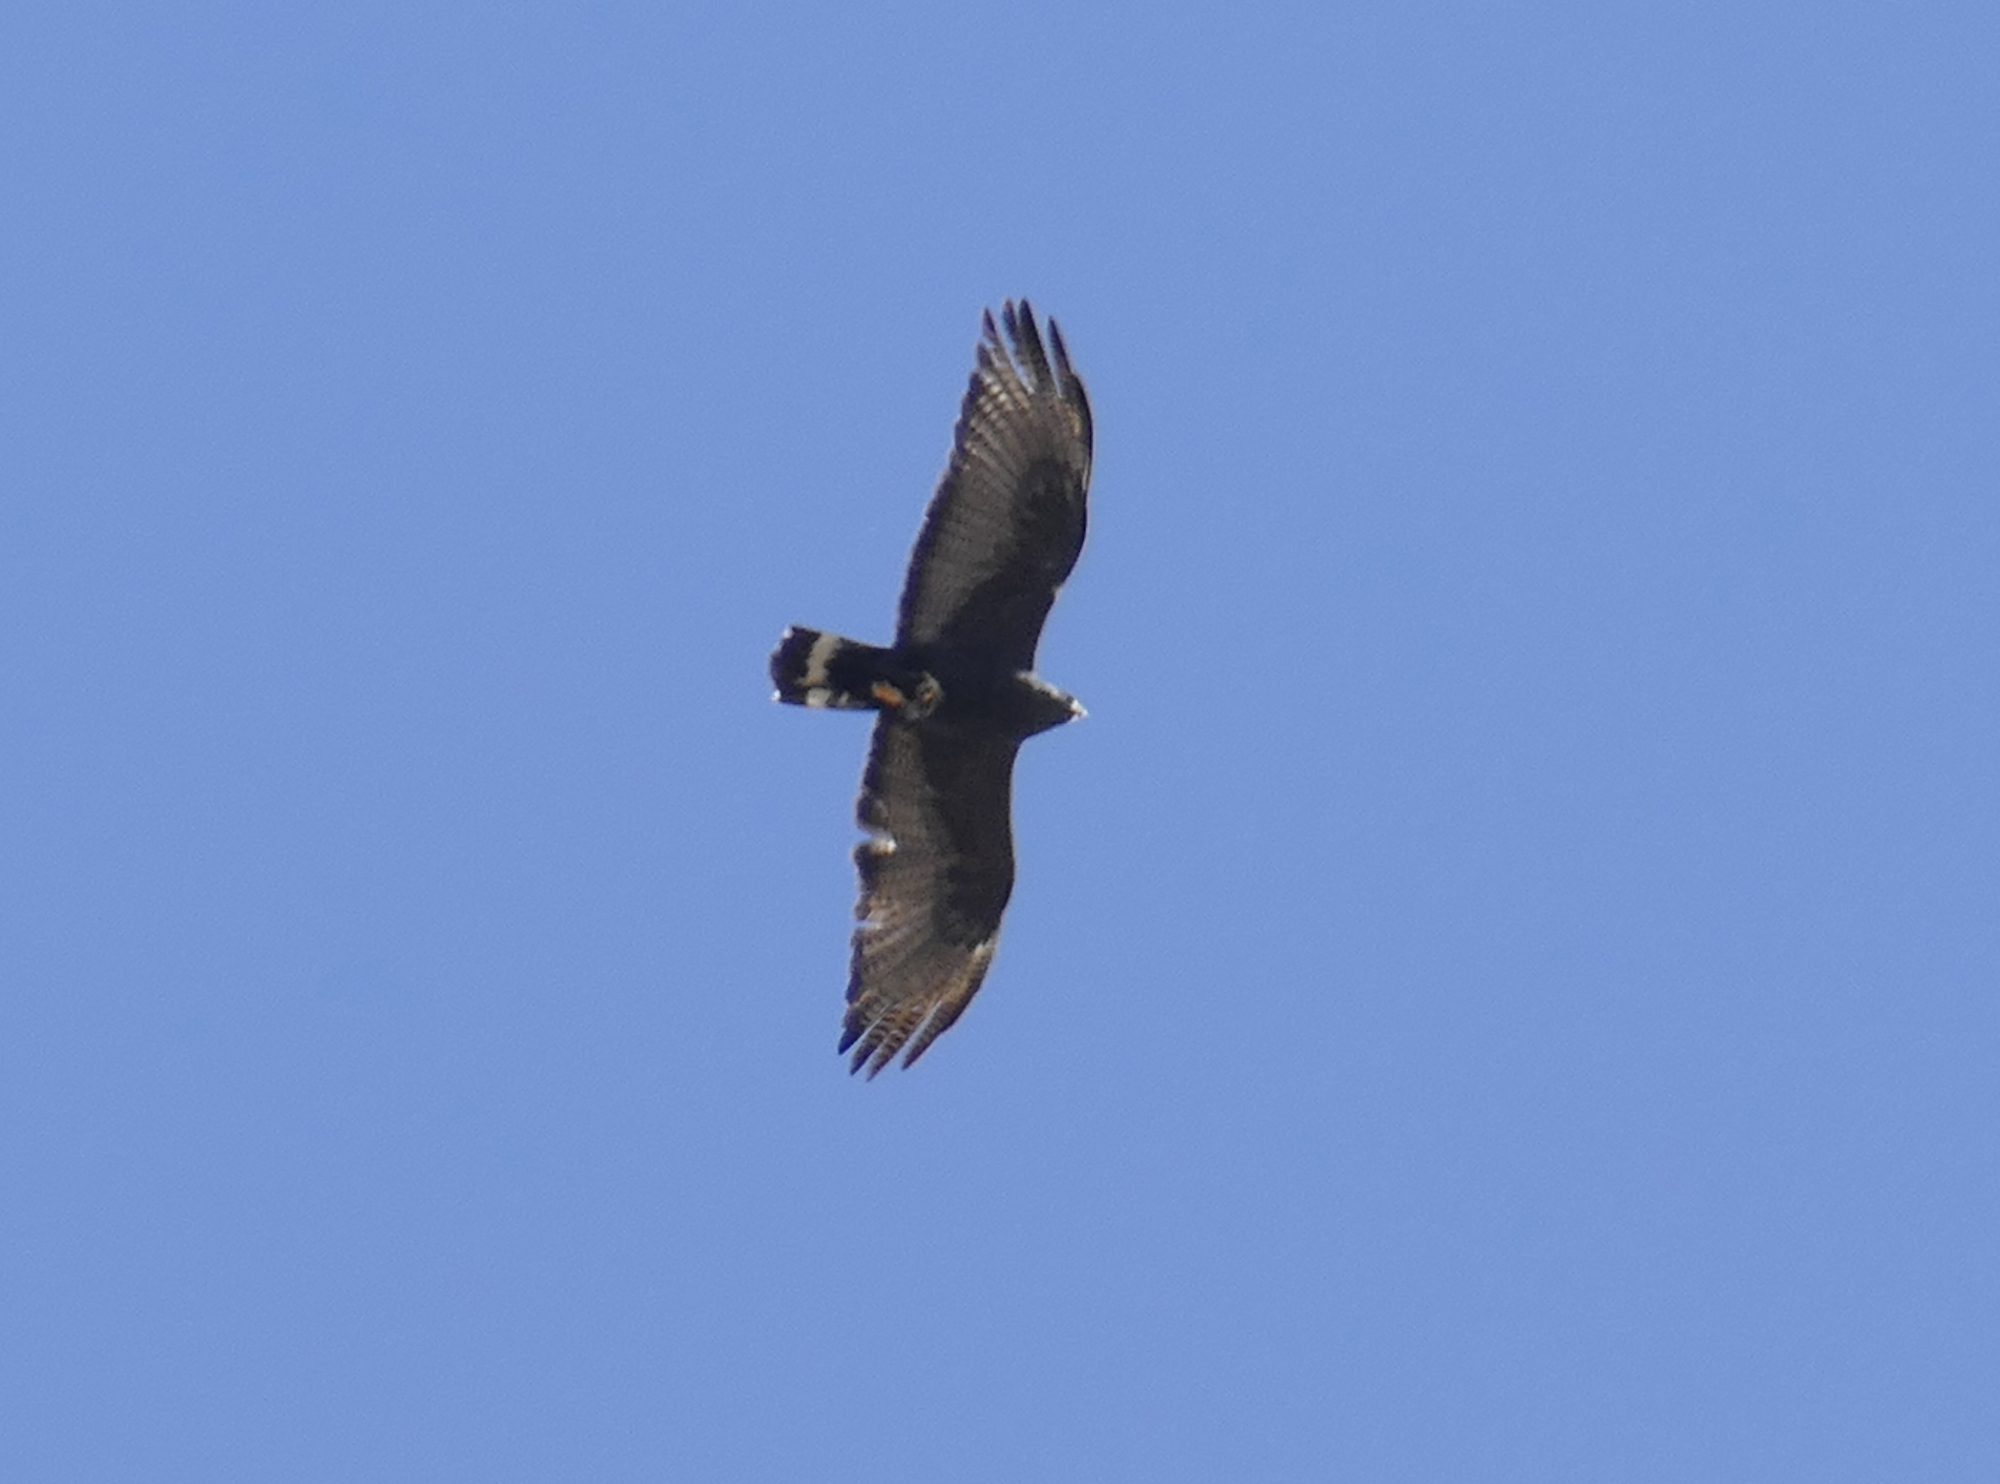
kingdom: Animalia
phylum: Chordata
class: Aves
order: Accipitriformes
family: Accipitridae
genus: Buteo
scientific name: Buteo albonotatus
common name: Zone-tailed hawk
